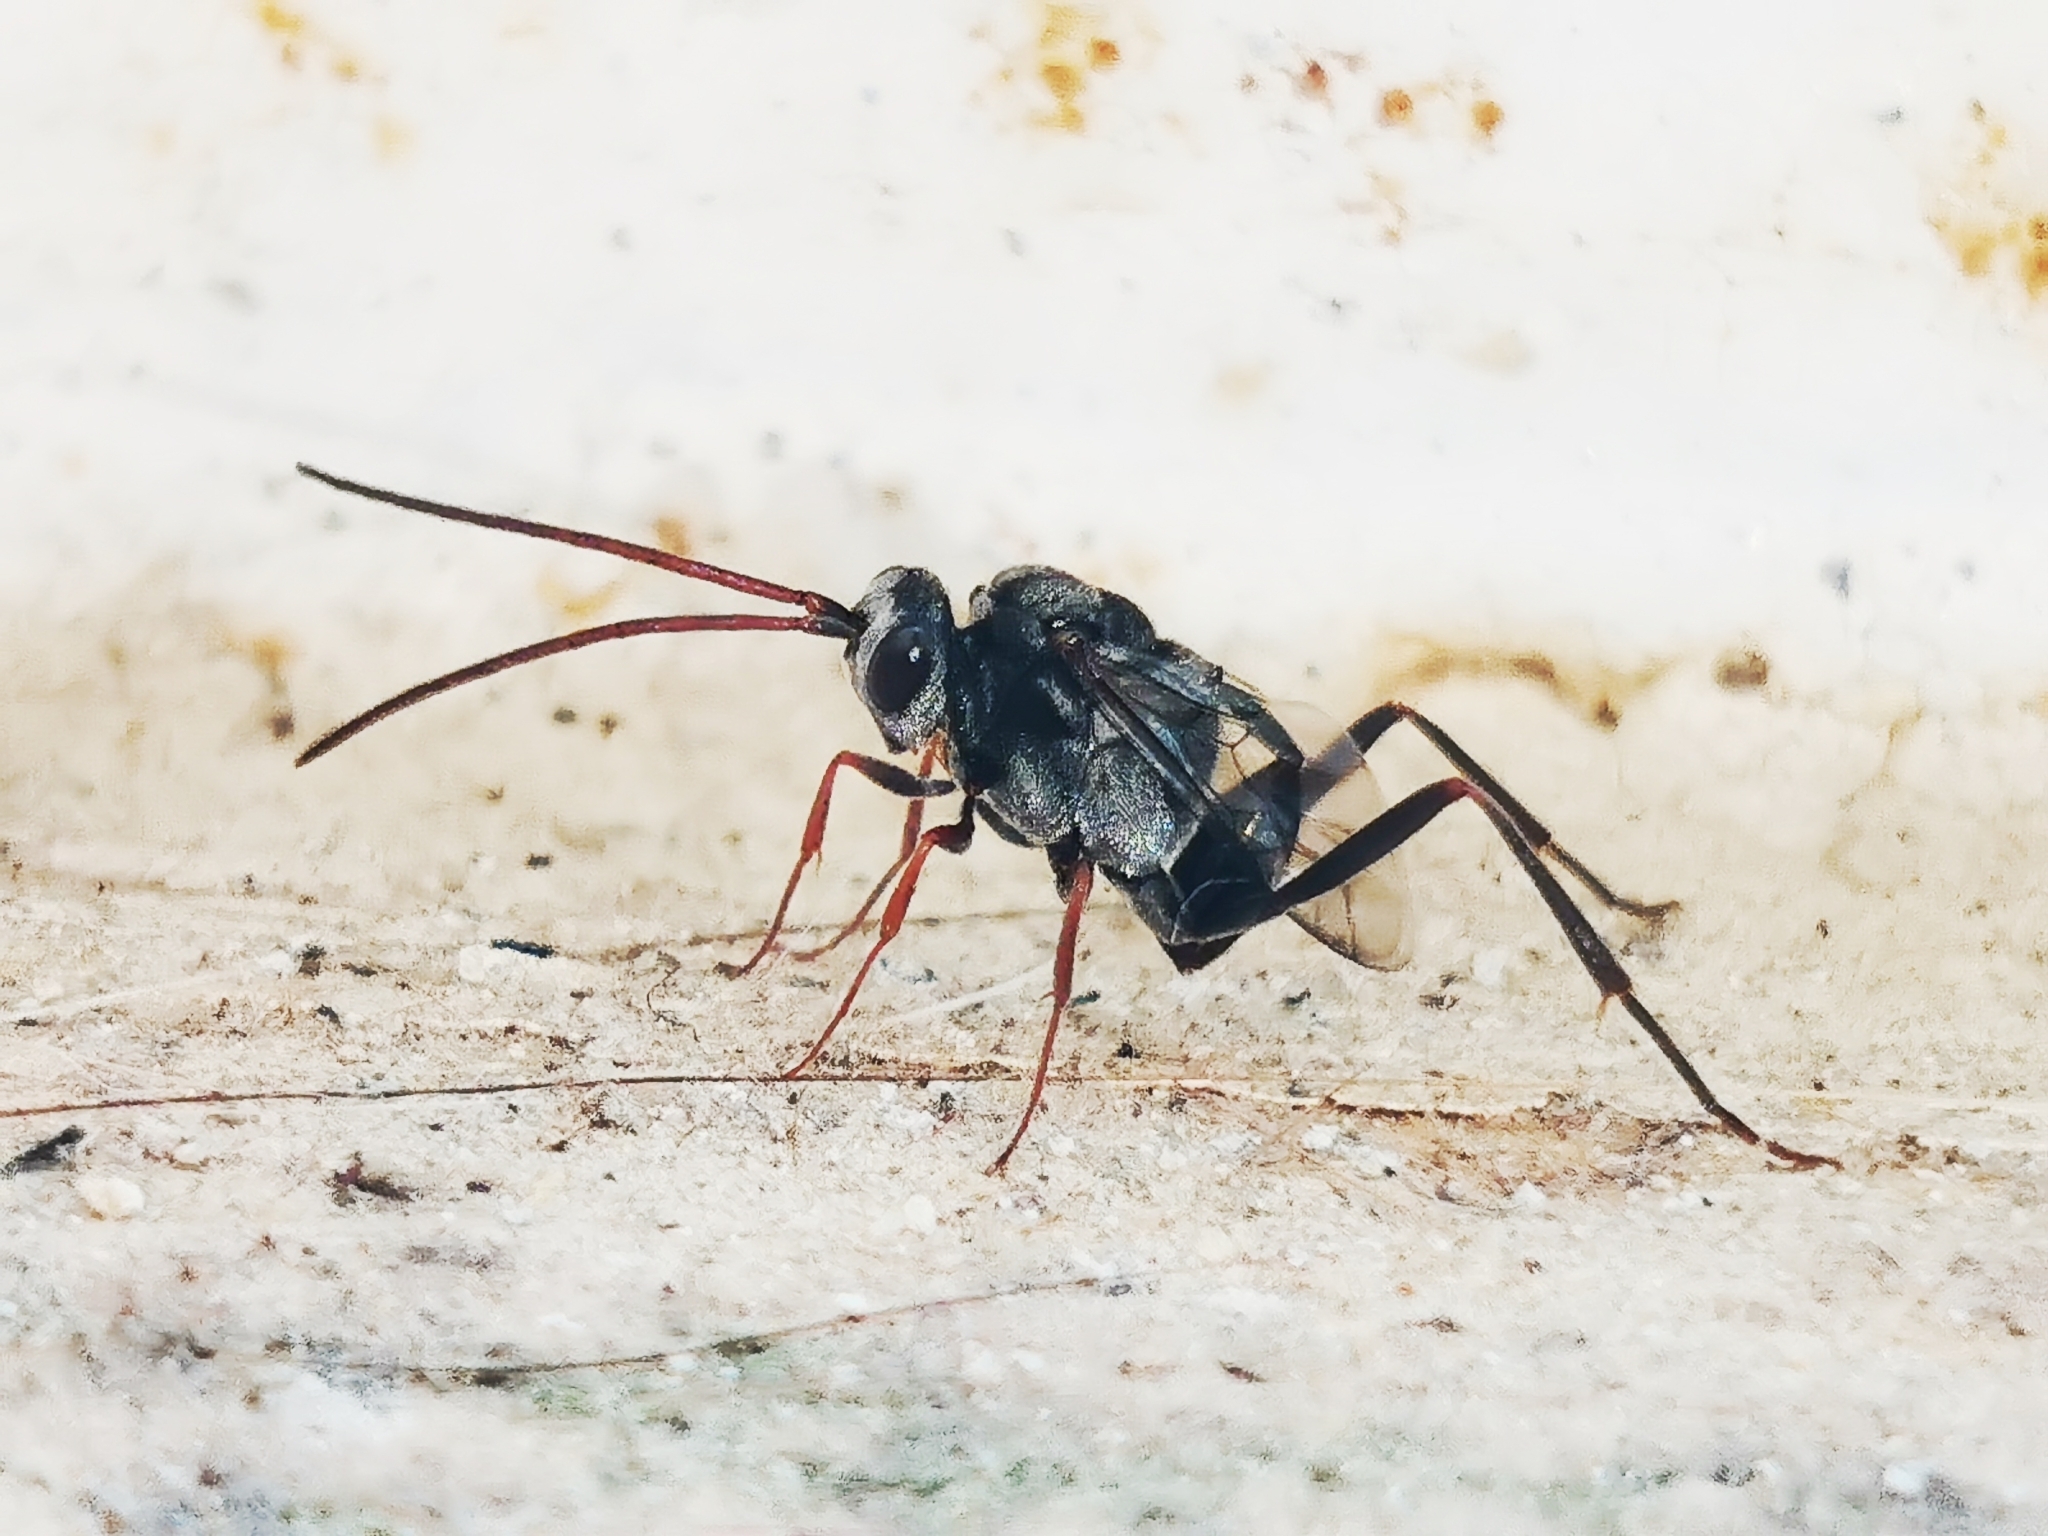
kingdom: Animalia
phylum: Arthropoda
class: Insecta
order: Hymenoptera
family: Evaniidae
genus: Prosevania
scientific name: Prosevania fuscipes
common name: Ensign wasp
